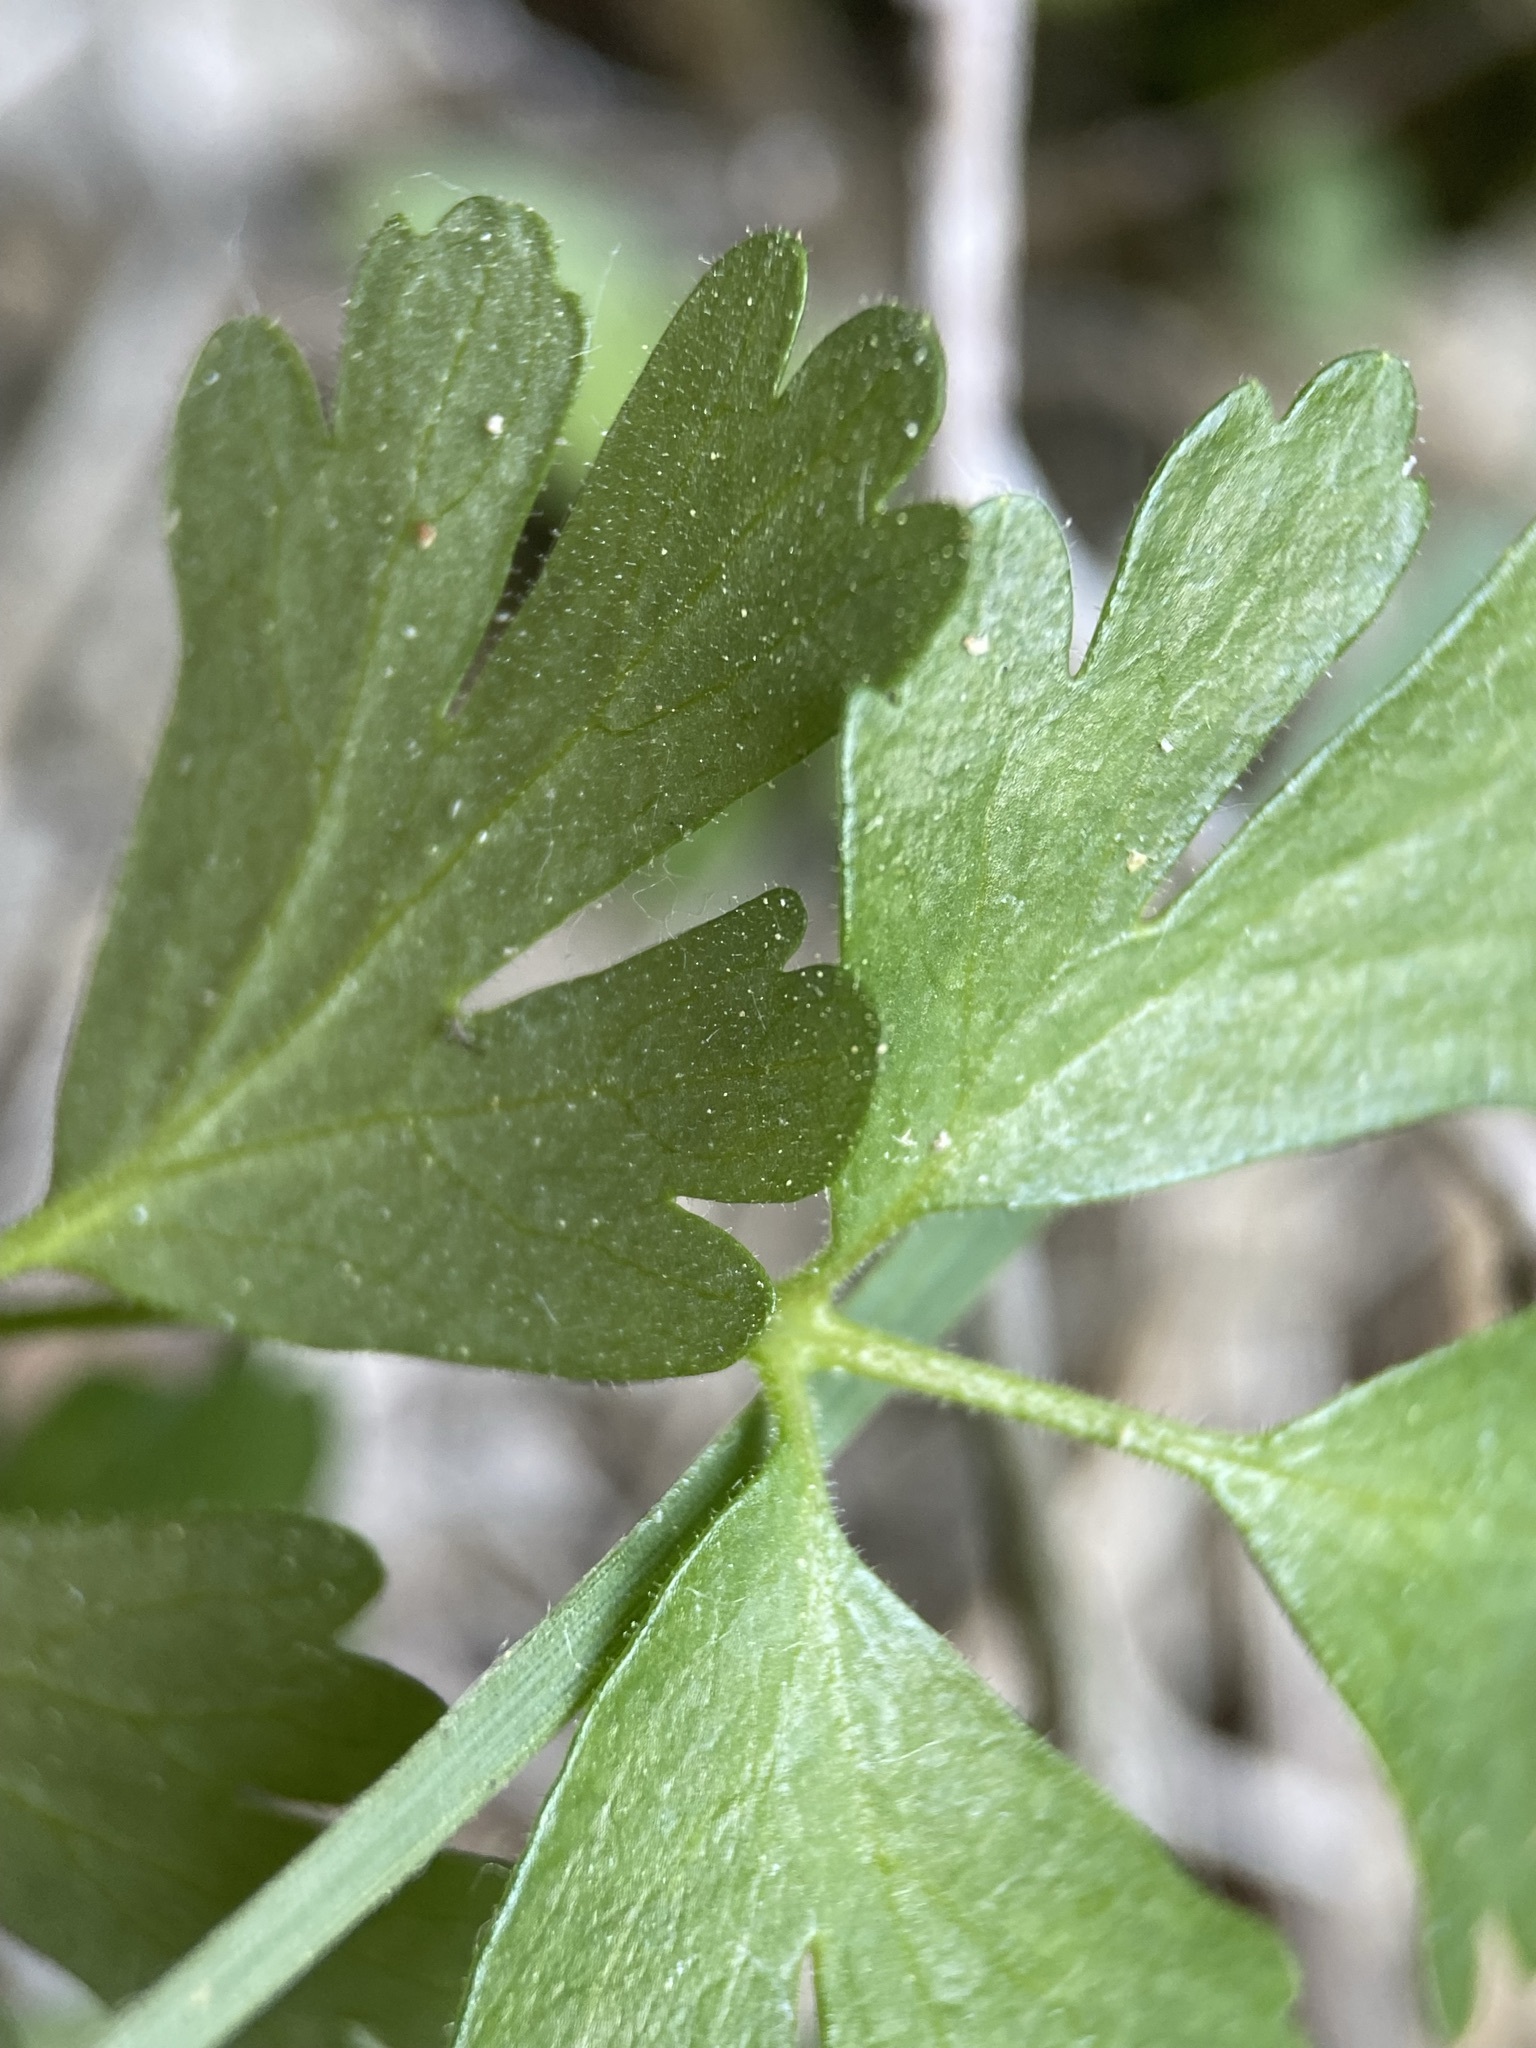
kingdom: Plantae
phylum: Tracheophyta
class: Magnoliopsida
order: Ranunculales
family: Ranunculaceae
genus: Aquilegia
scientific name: Aquilegia micrantha
